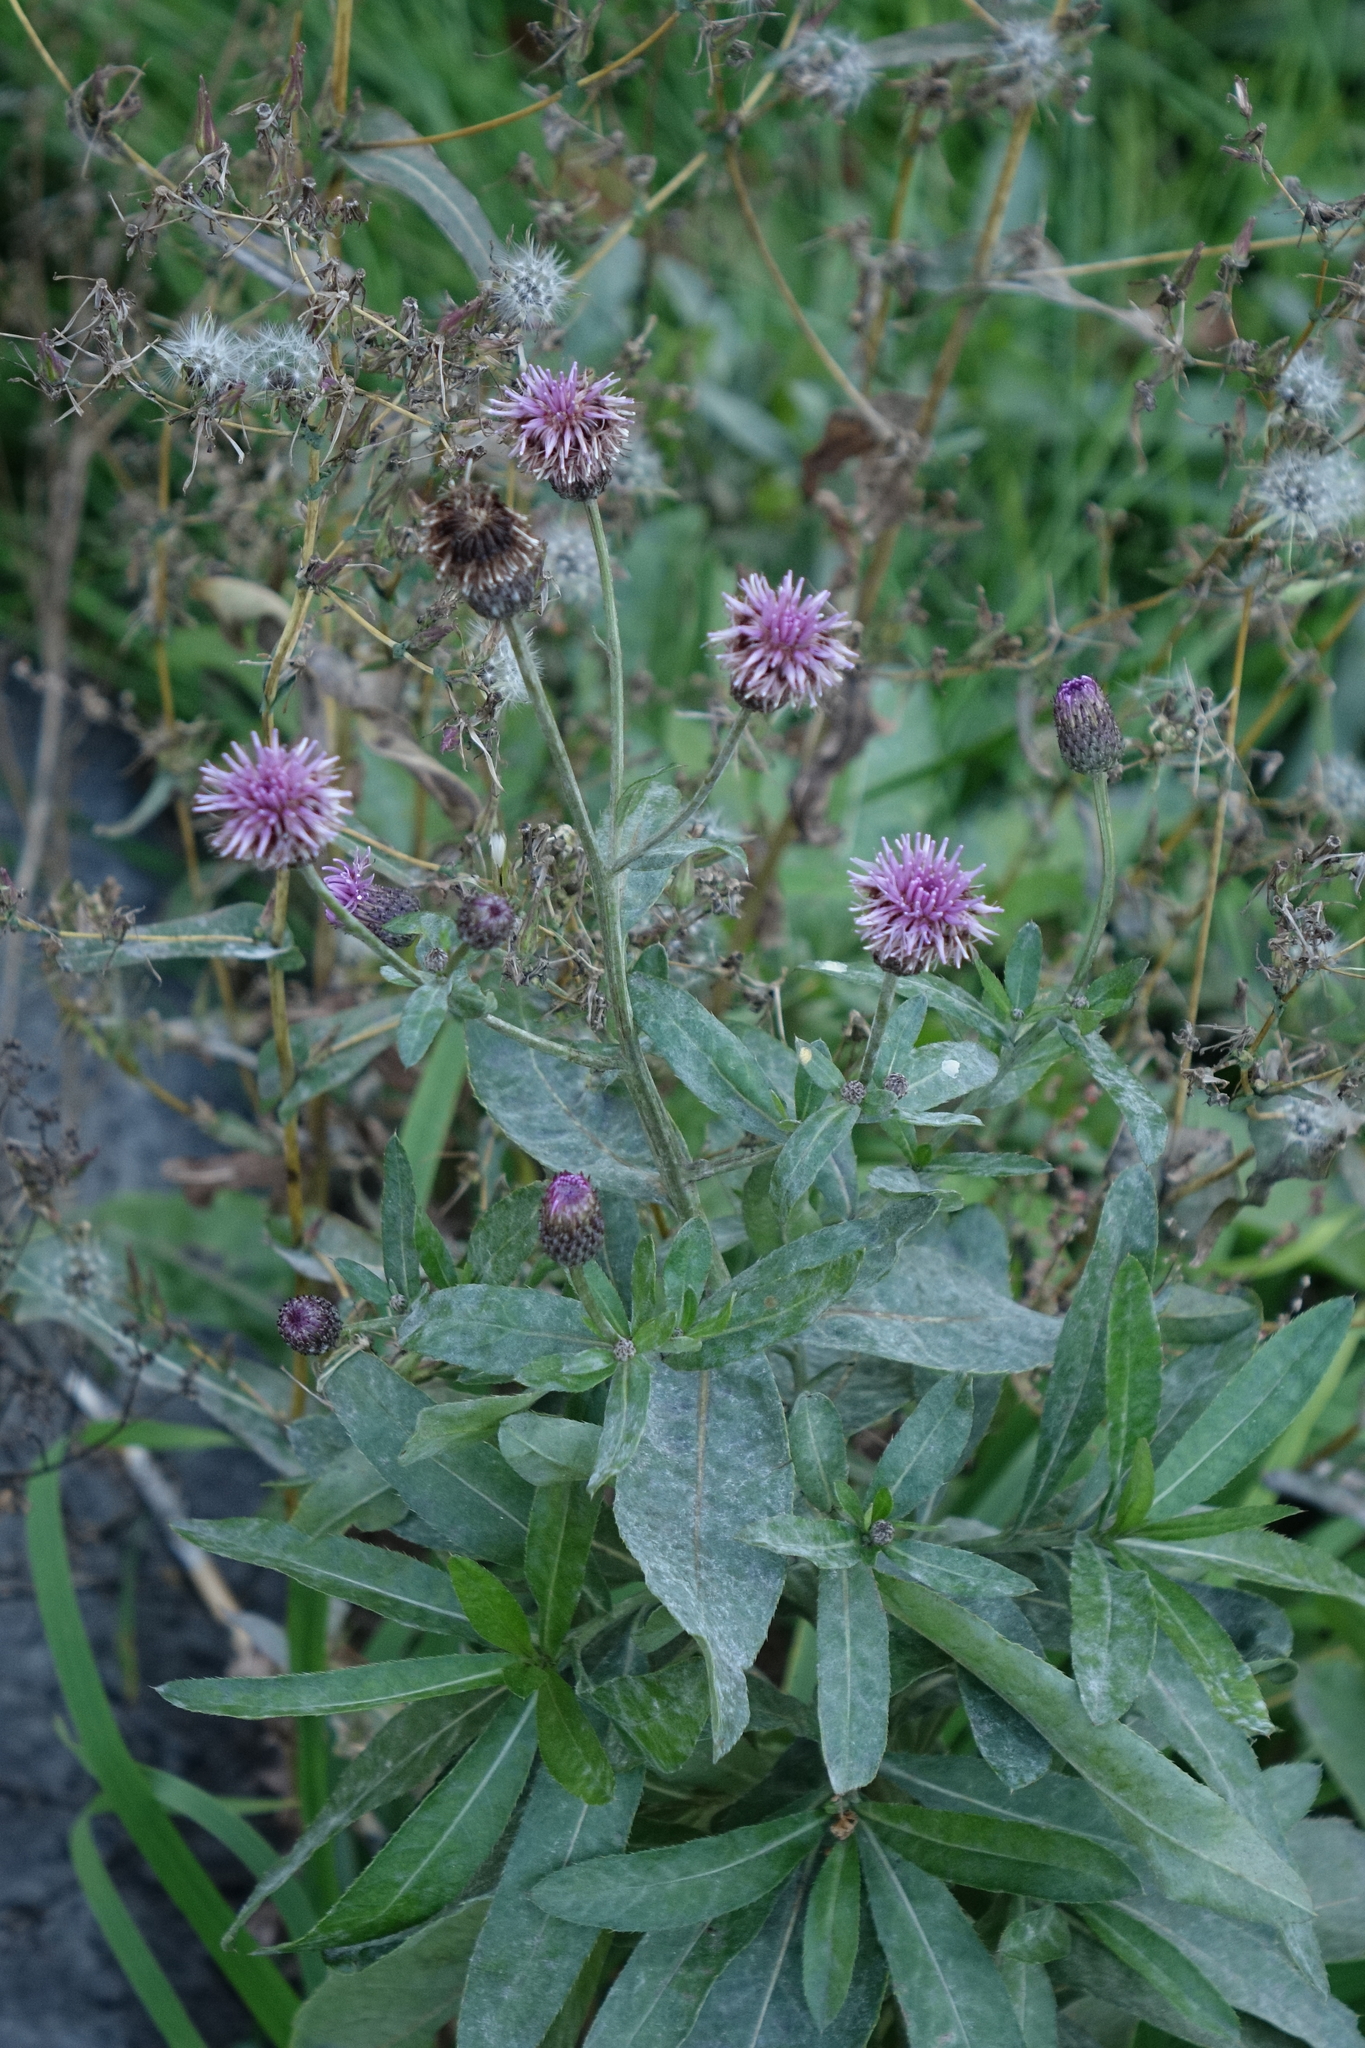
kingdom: Plantae
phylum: Tracheophyta
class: Magnoliopsida
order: Asterales
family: Asteraceae
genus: Cirsium
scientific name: Cirsium arvense
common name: Creeping thistle
